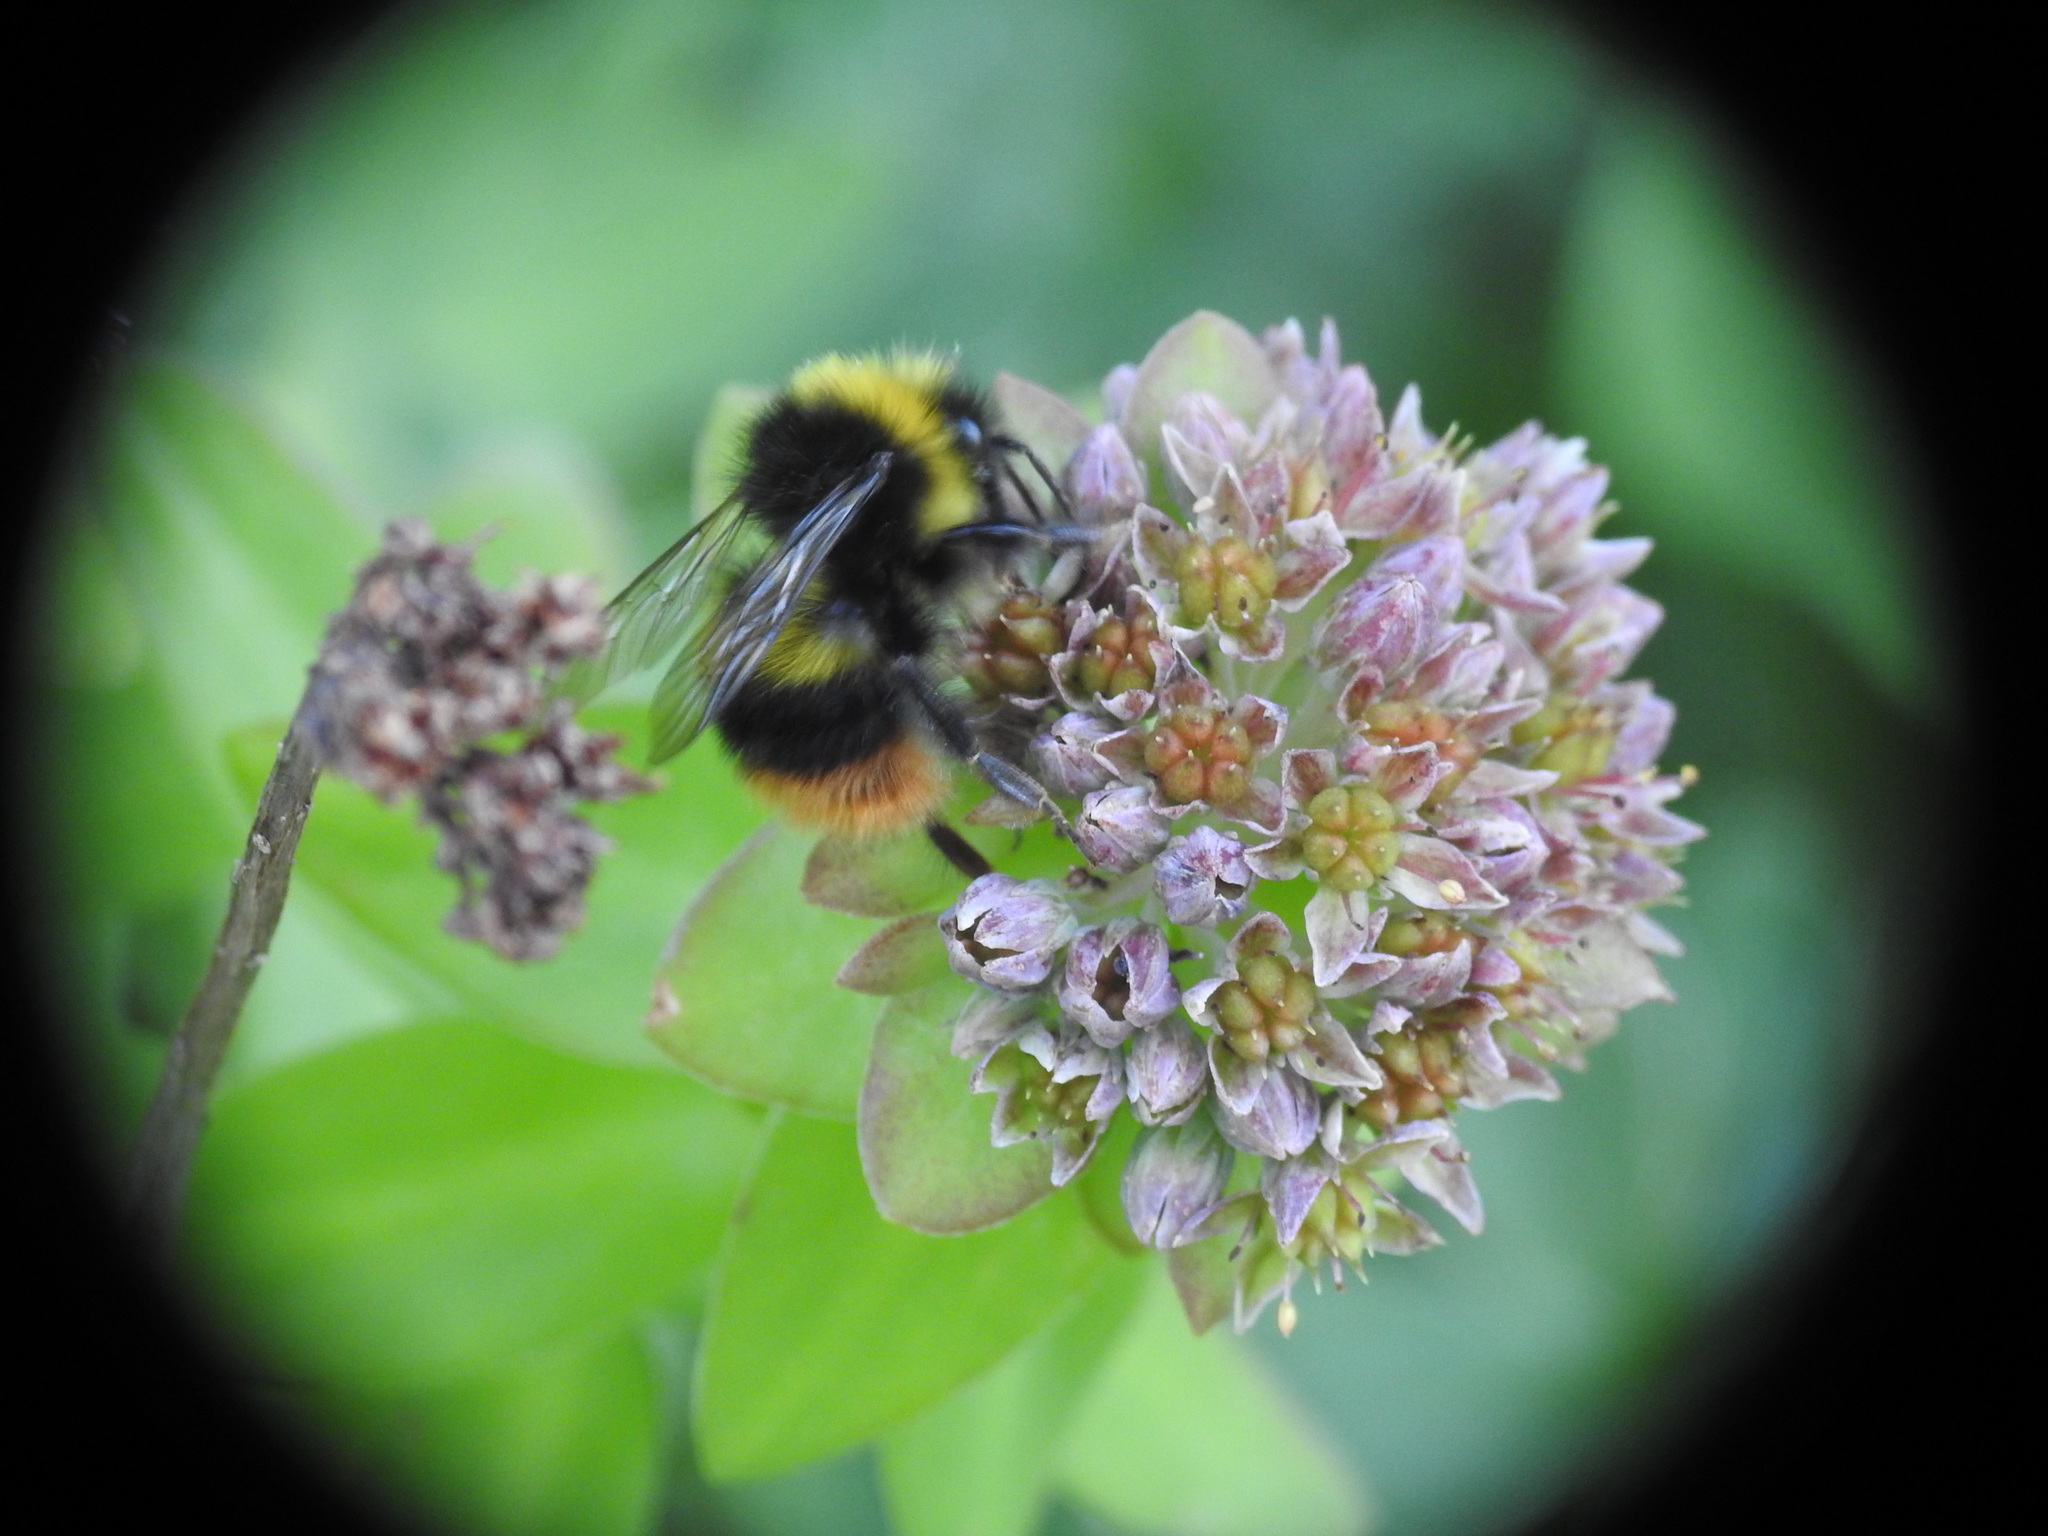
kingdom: Animalia
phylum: Arthropoda
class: Insecta
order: Hymenoptera
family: Apidae
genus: Bombus
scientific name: Bombus pratorum
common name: Early humble-bee
